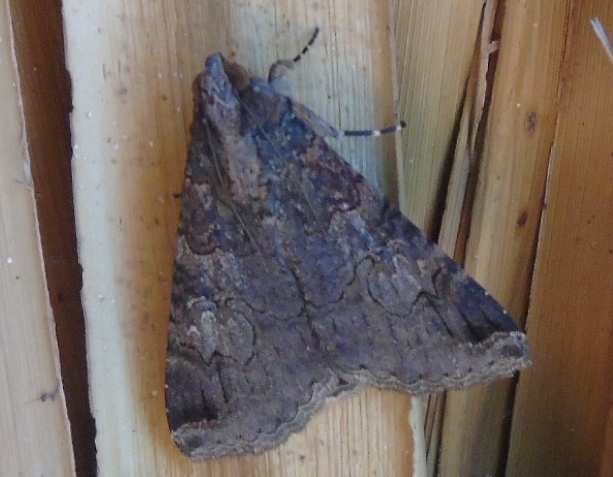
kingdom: Animalia
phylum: Arthropoda
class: Insecta
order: Lepidoptera
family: Erebidae
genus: Melipotis
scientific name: Melipotis
